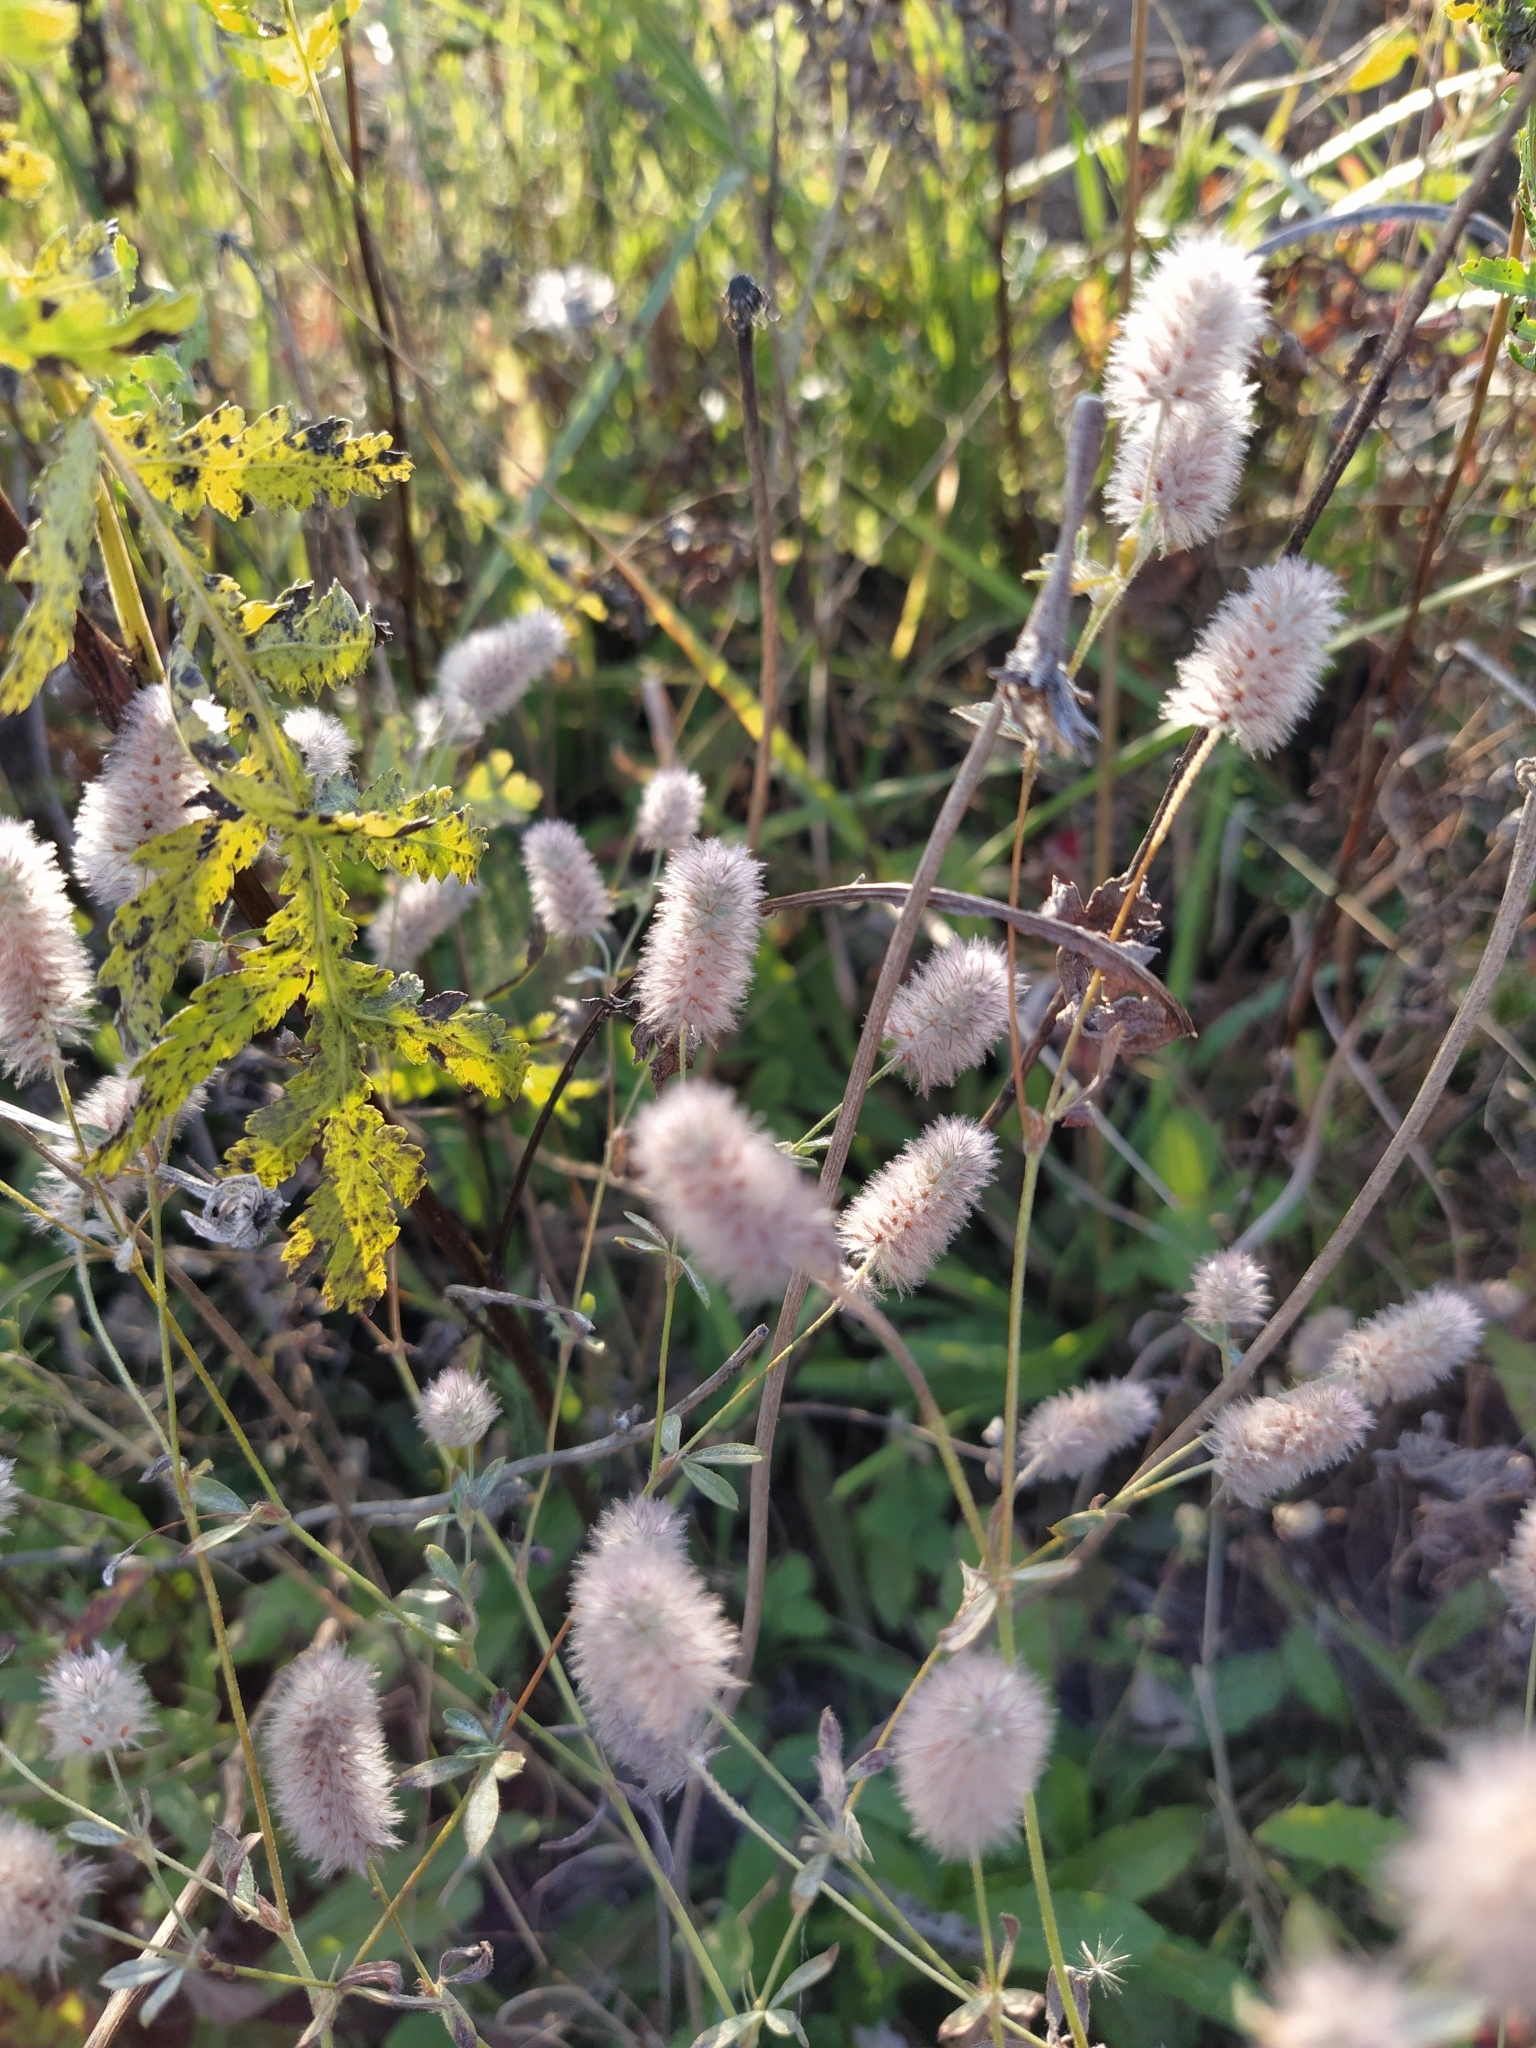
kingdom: Plantae
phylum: Tracheophyta
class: Magnoliopsida
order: Fabales
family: Fabaceae
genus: Trifolium
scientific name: Trifolium arvense
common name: Hare's-foot clover
